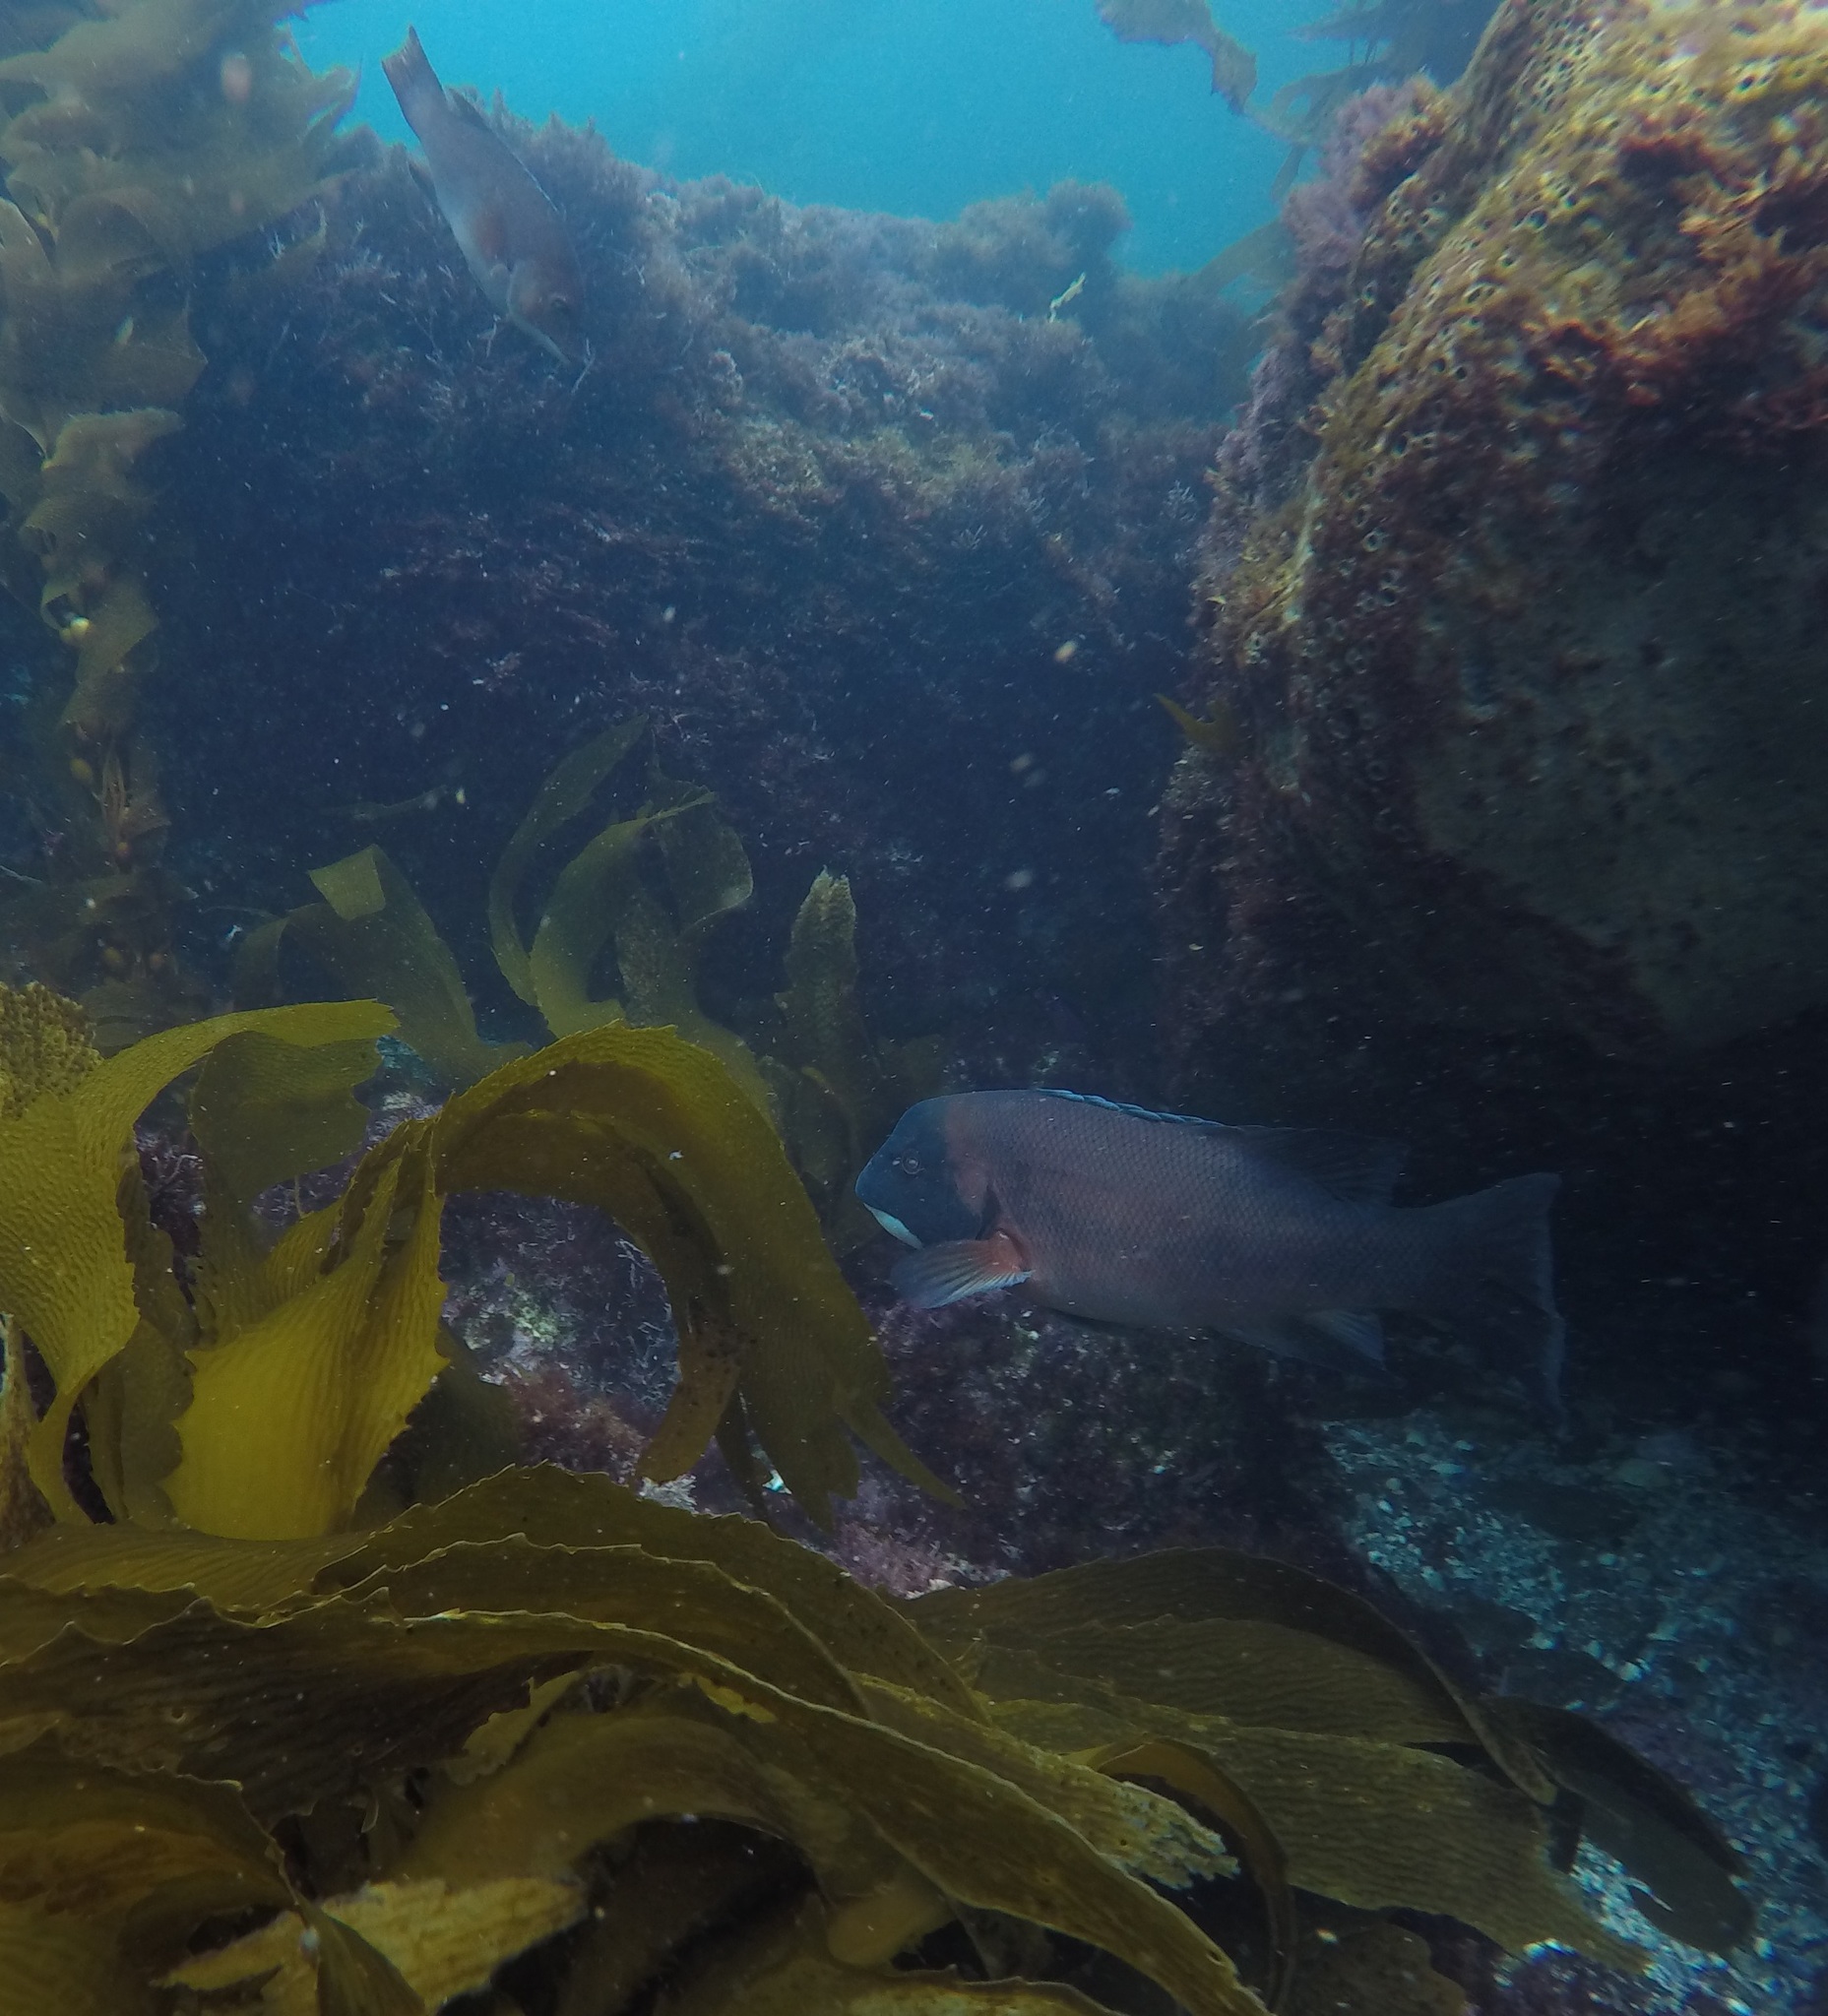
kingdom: Animalia
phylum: Chordata
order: Perciformes
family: Labridae
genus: Semicossyphus
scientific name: Semicossyphus pulcher
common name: California sheephead
